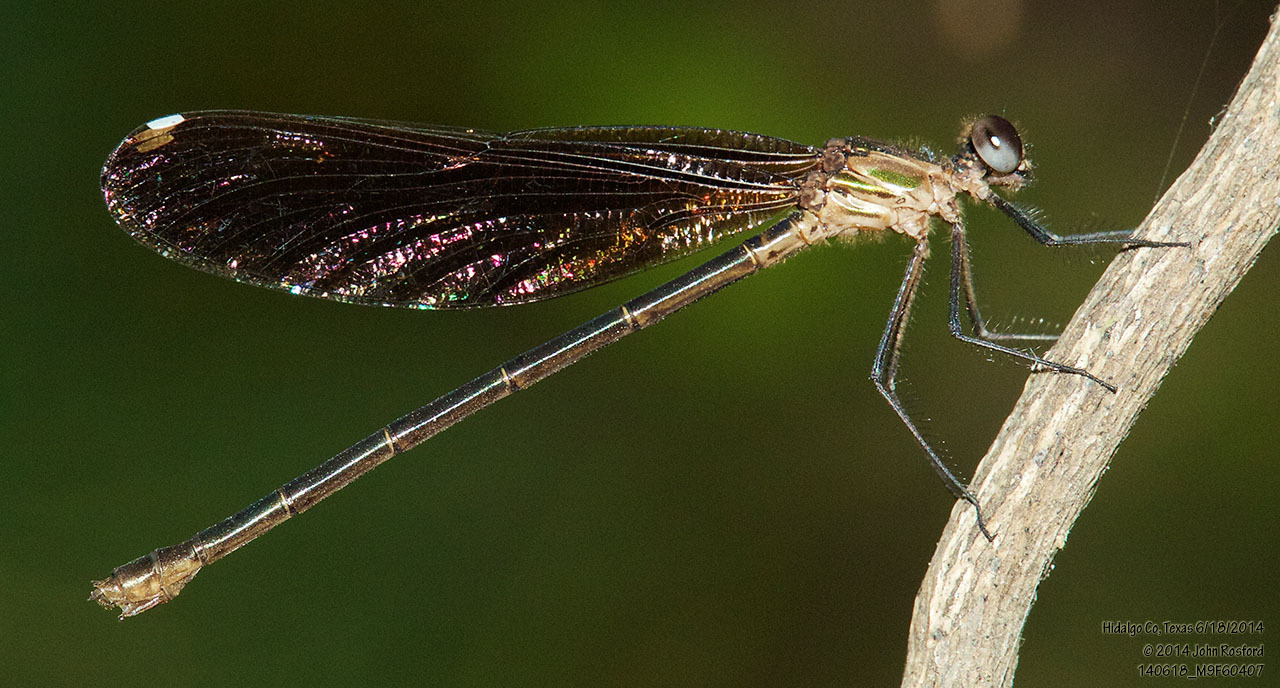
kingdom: Animalia
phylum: Arthropoda
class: Insecta
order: Odonata
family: Calopterygidae
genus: Hetaerina
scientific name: Hetaerina titia
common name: Smoky rubyspot
